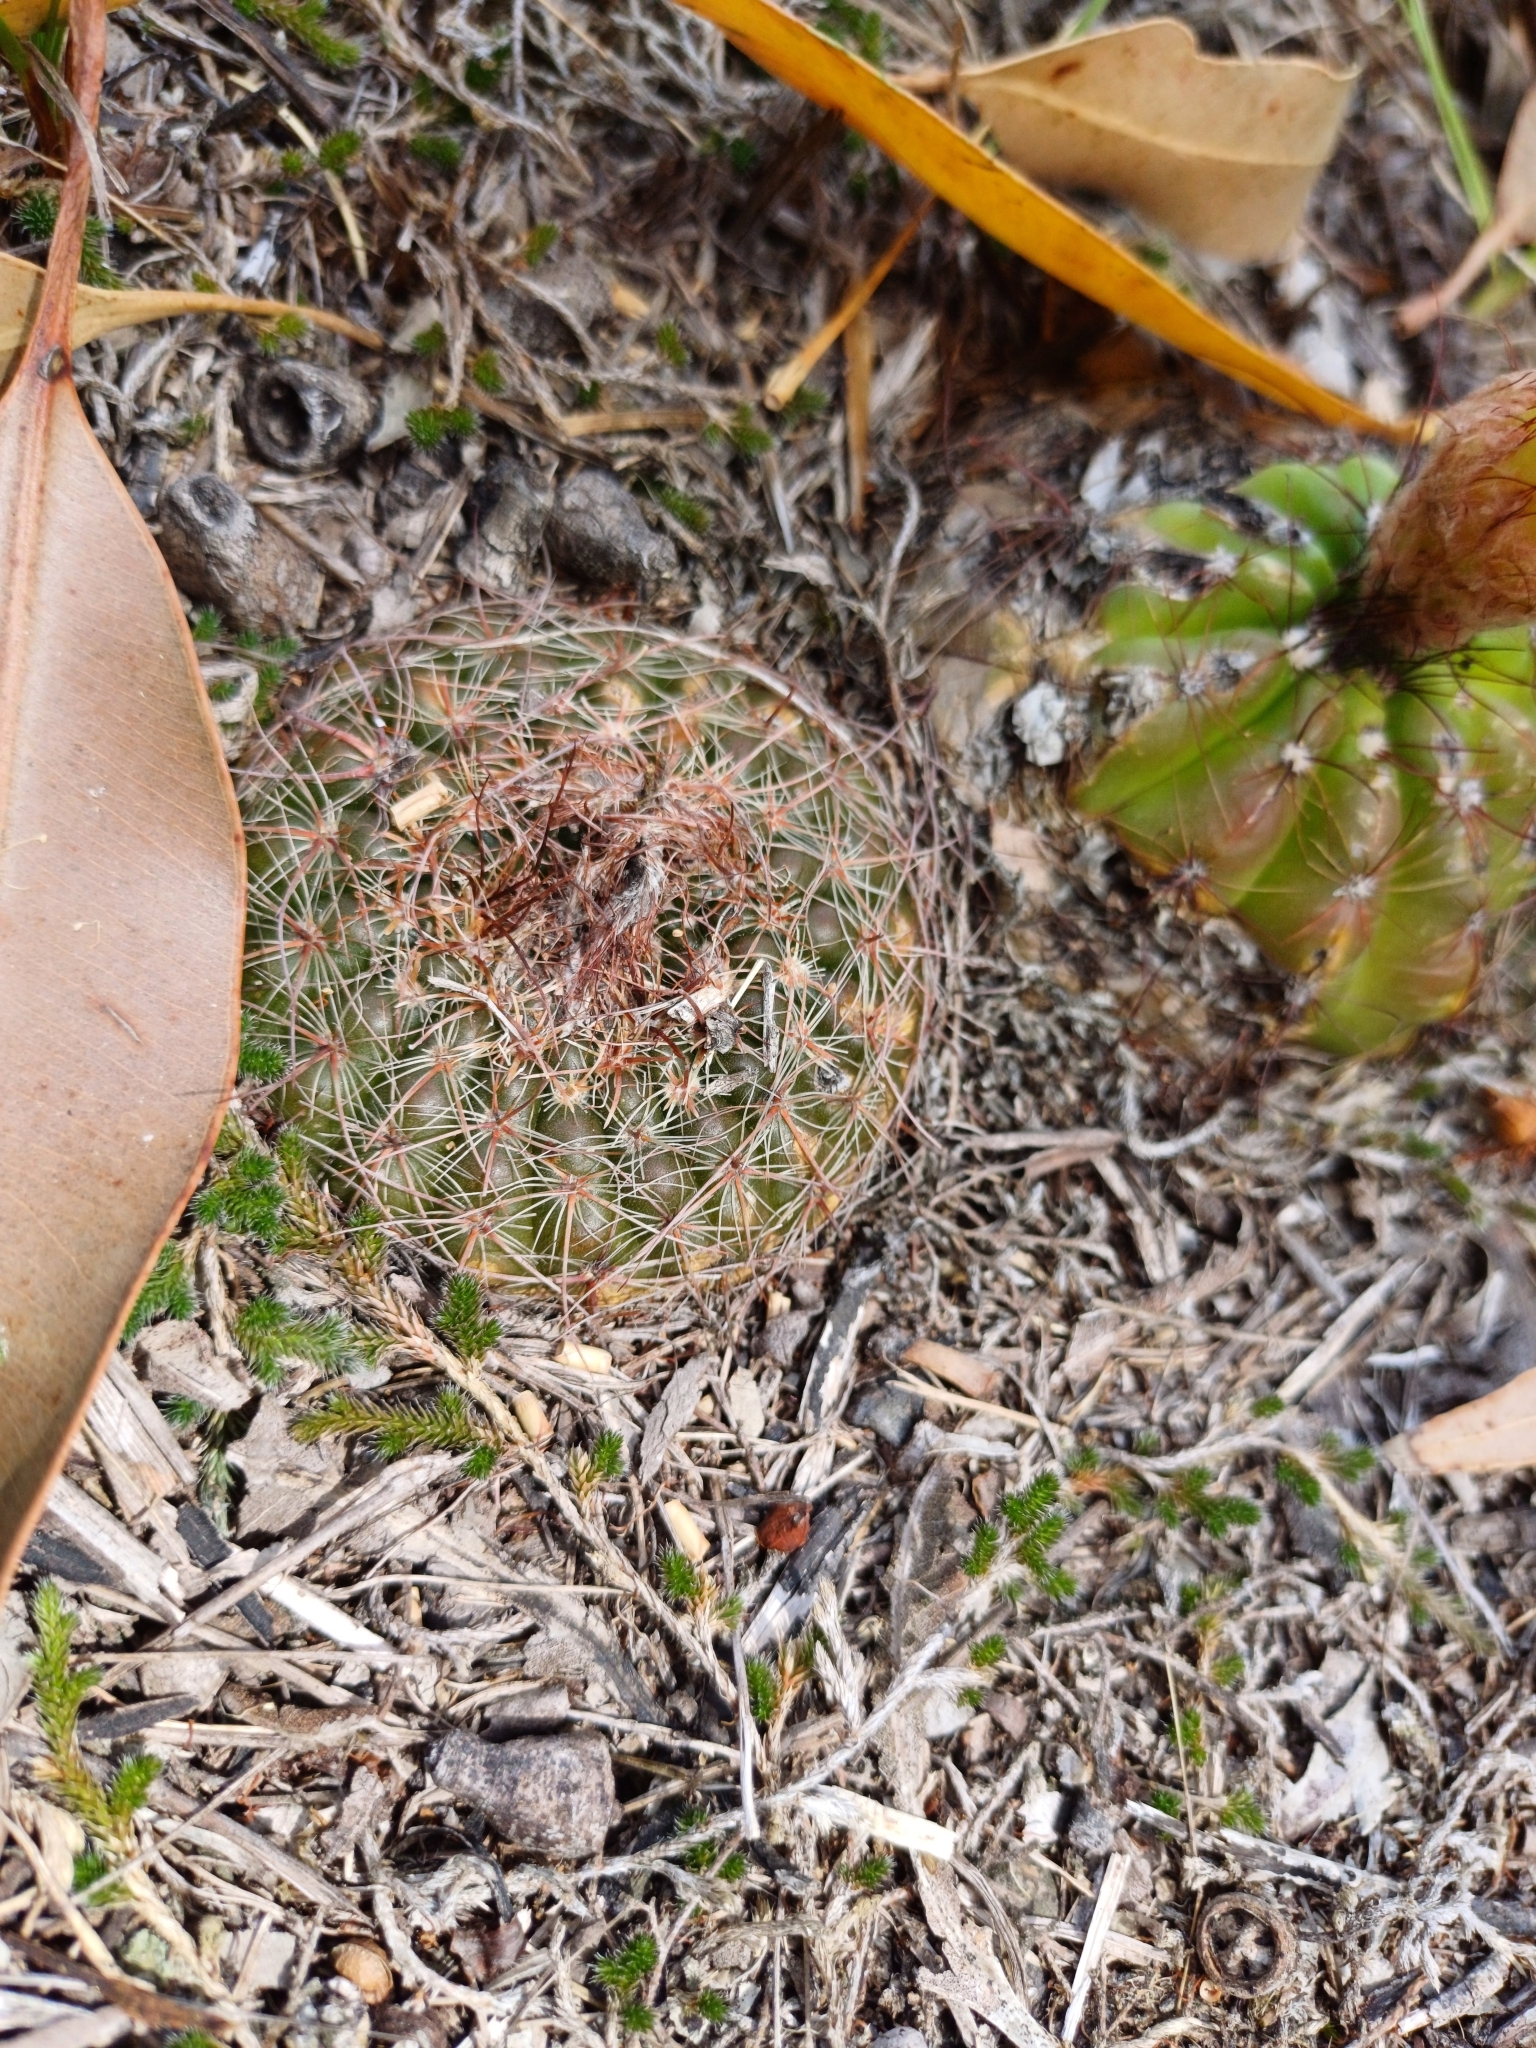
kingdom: Plantae
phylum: Tracheophyta
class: Magnoliopsida
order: Caryophyllales
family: Cactaceae
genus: Parodia
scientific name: Parodia concinna
